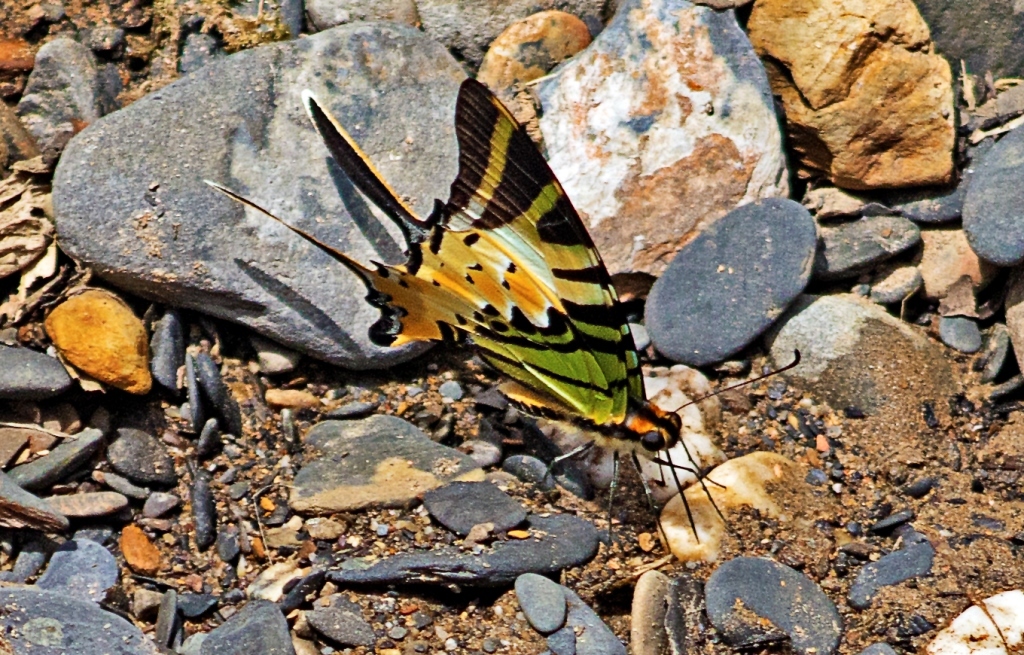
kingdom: Animalia
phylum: Arthropoda
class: Insecta
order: Lepidoptera
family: Papilionidae
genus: Graphium
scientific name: Graphium antiphates
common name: Fivebar swordtail
